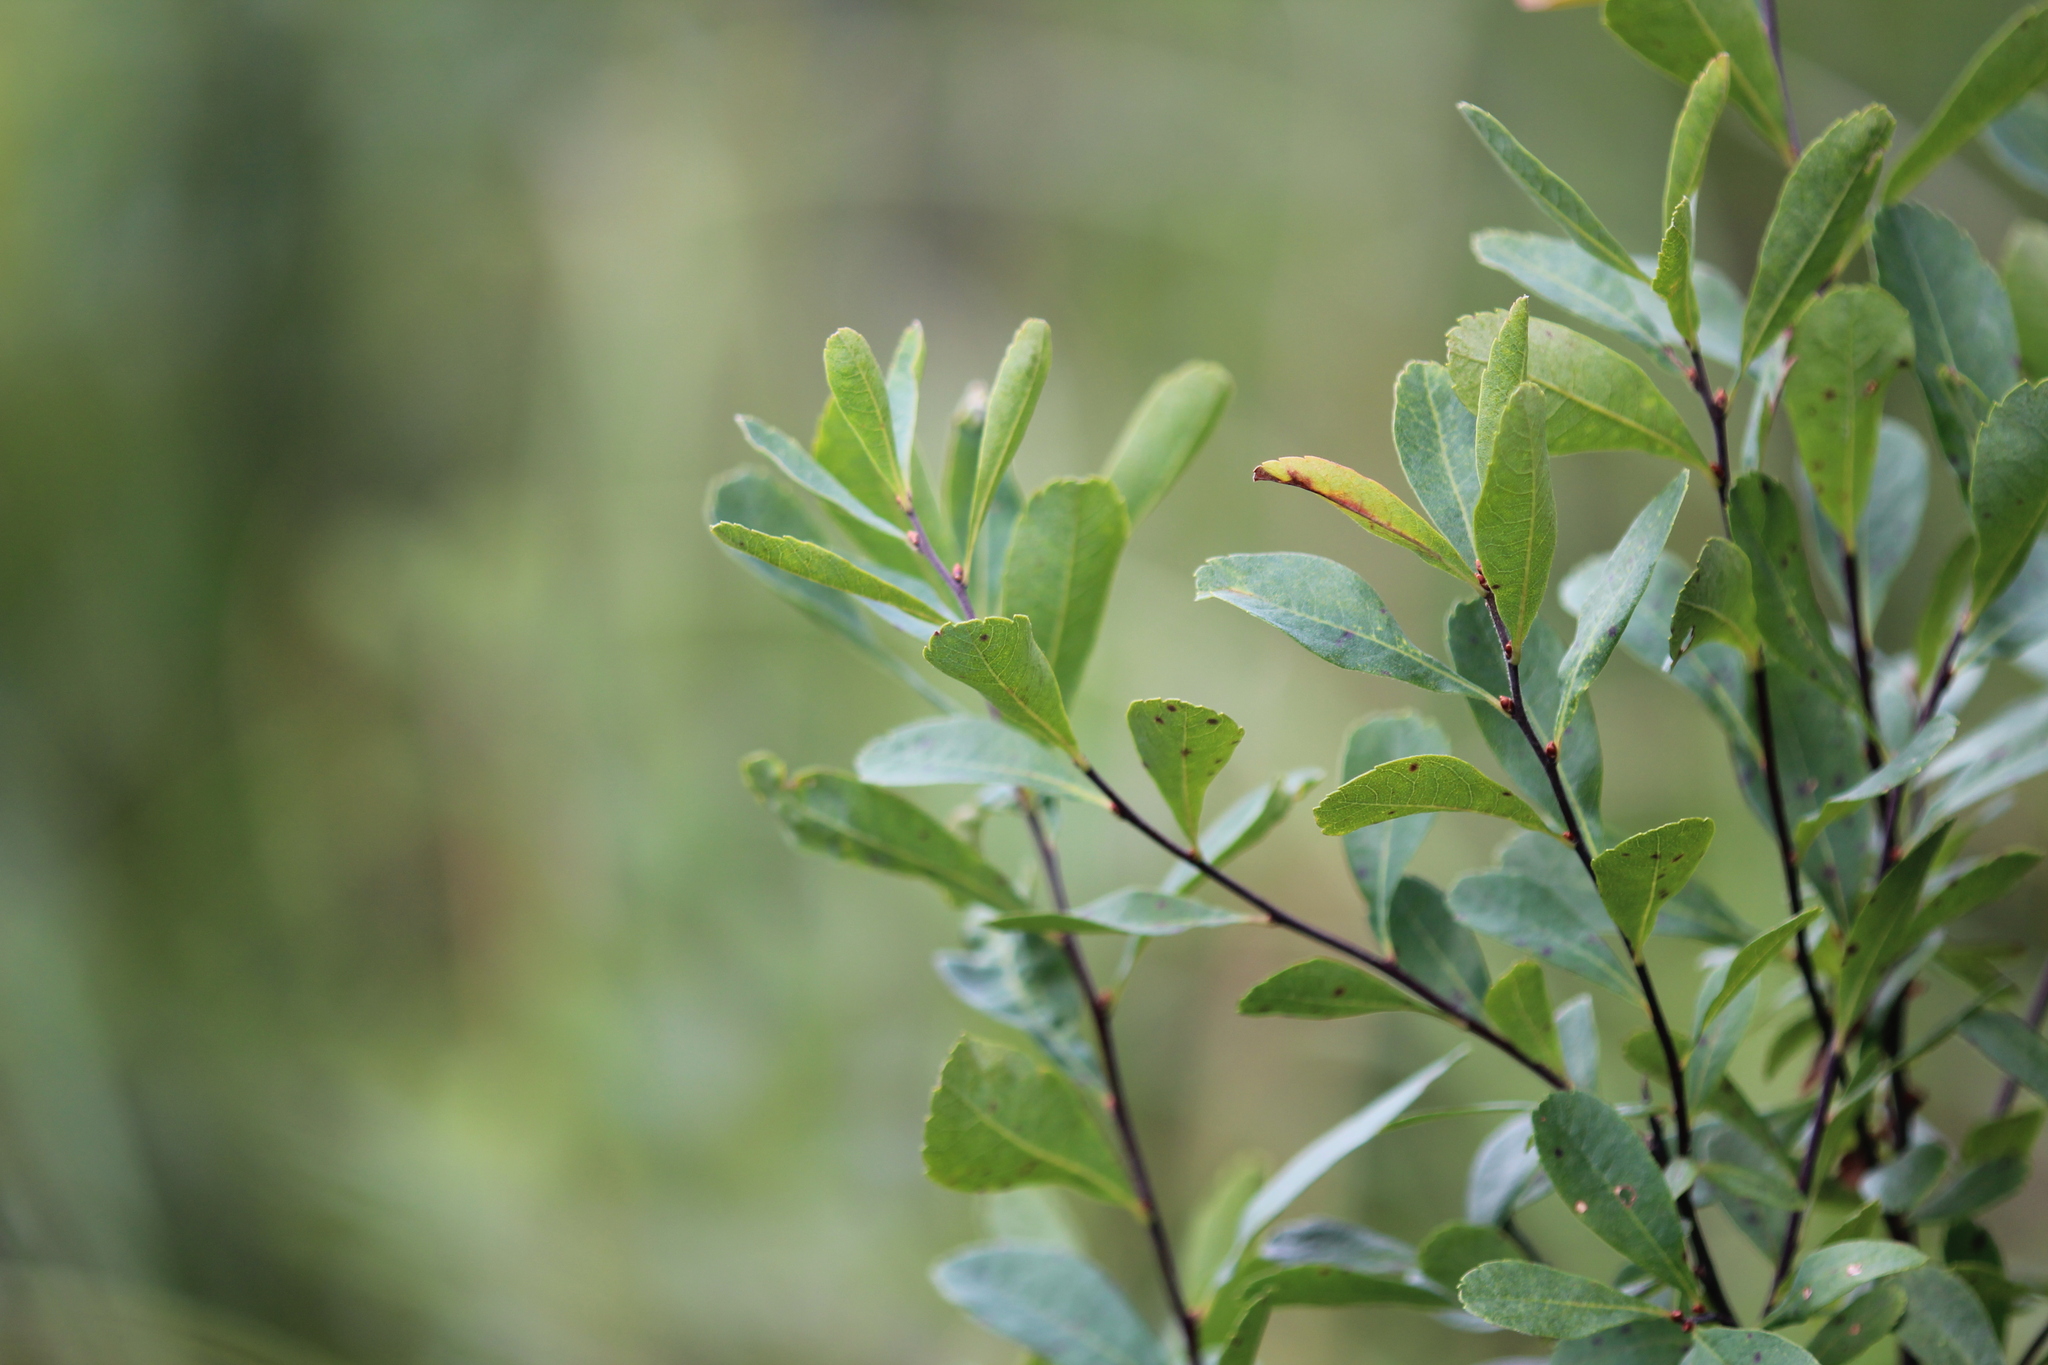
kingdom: Plantae
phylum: Tracheophyta
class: Magnoliopsida
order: Fagales
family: Myricaceae
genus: Myrica
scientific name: Myrica gale
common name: Sweet gale
